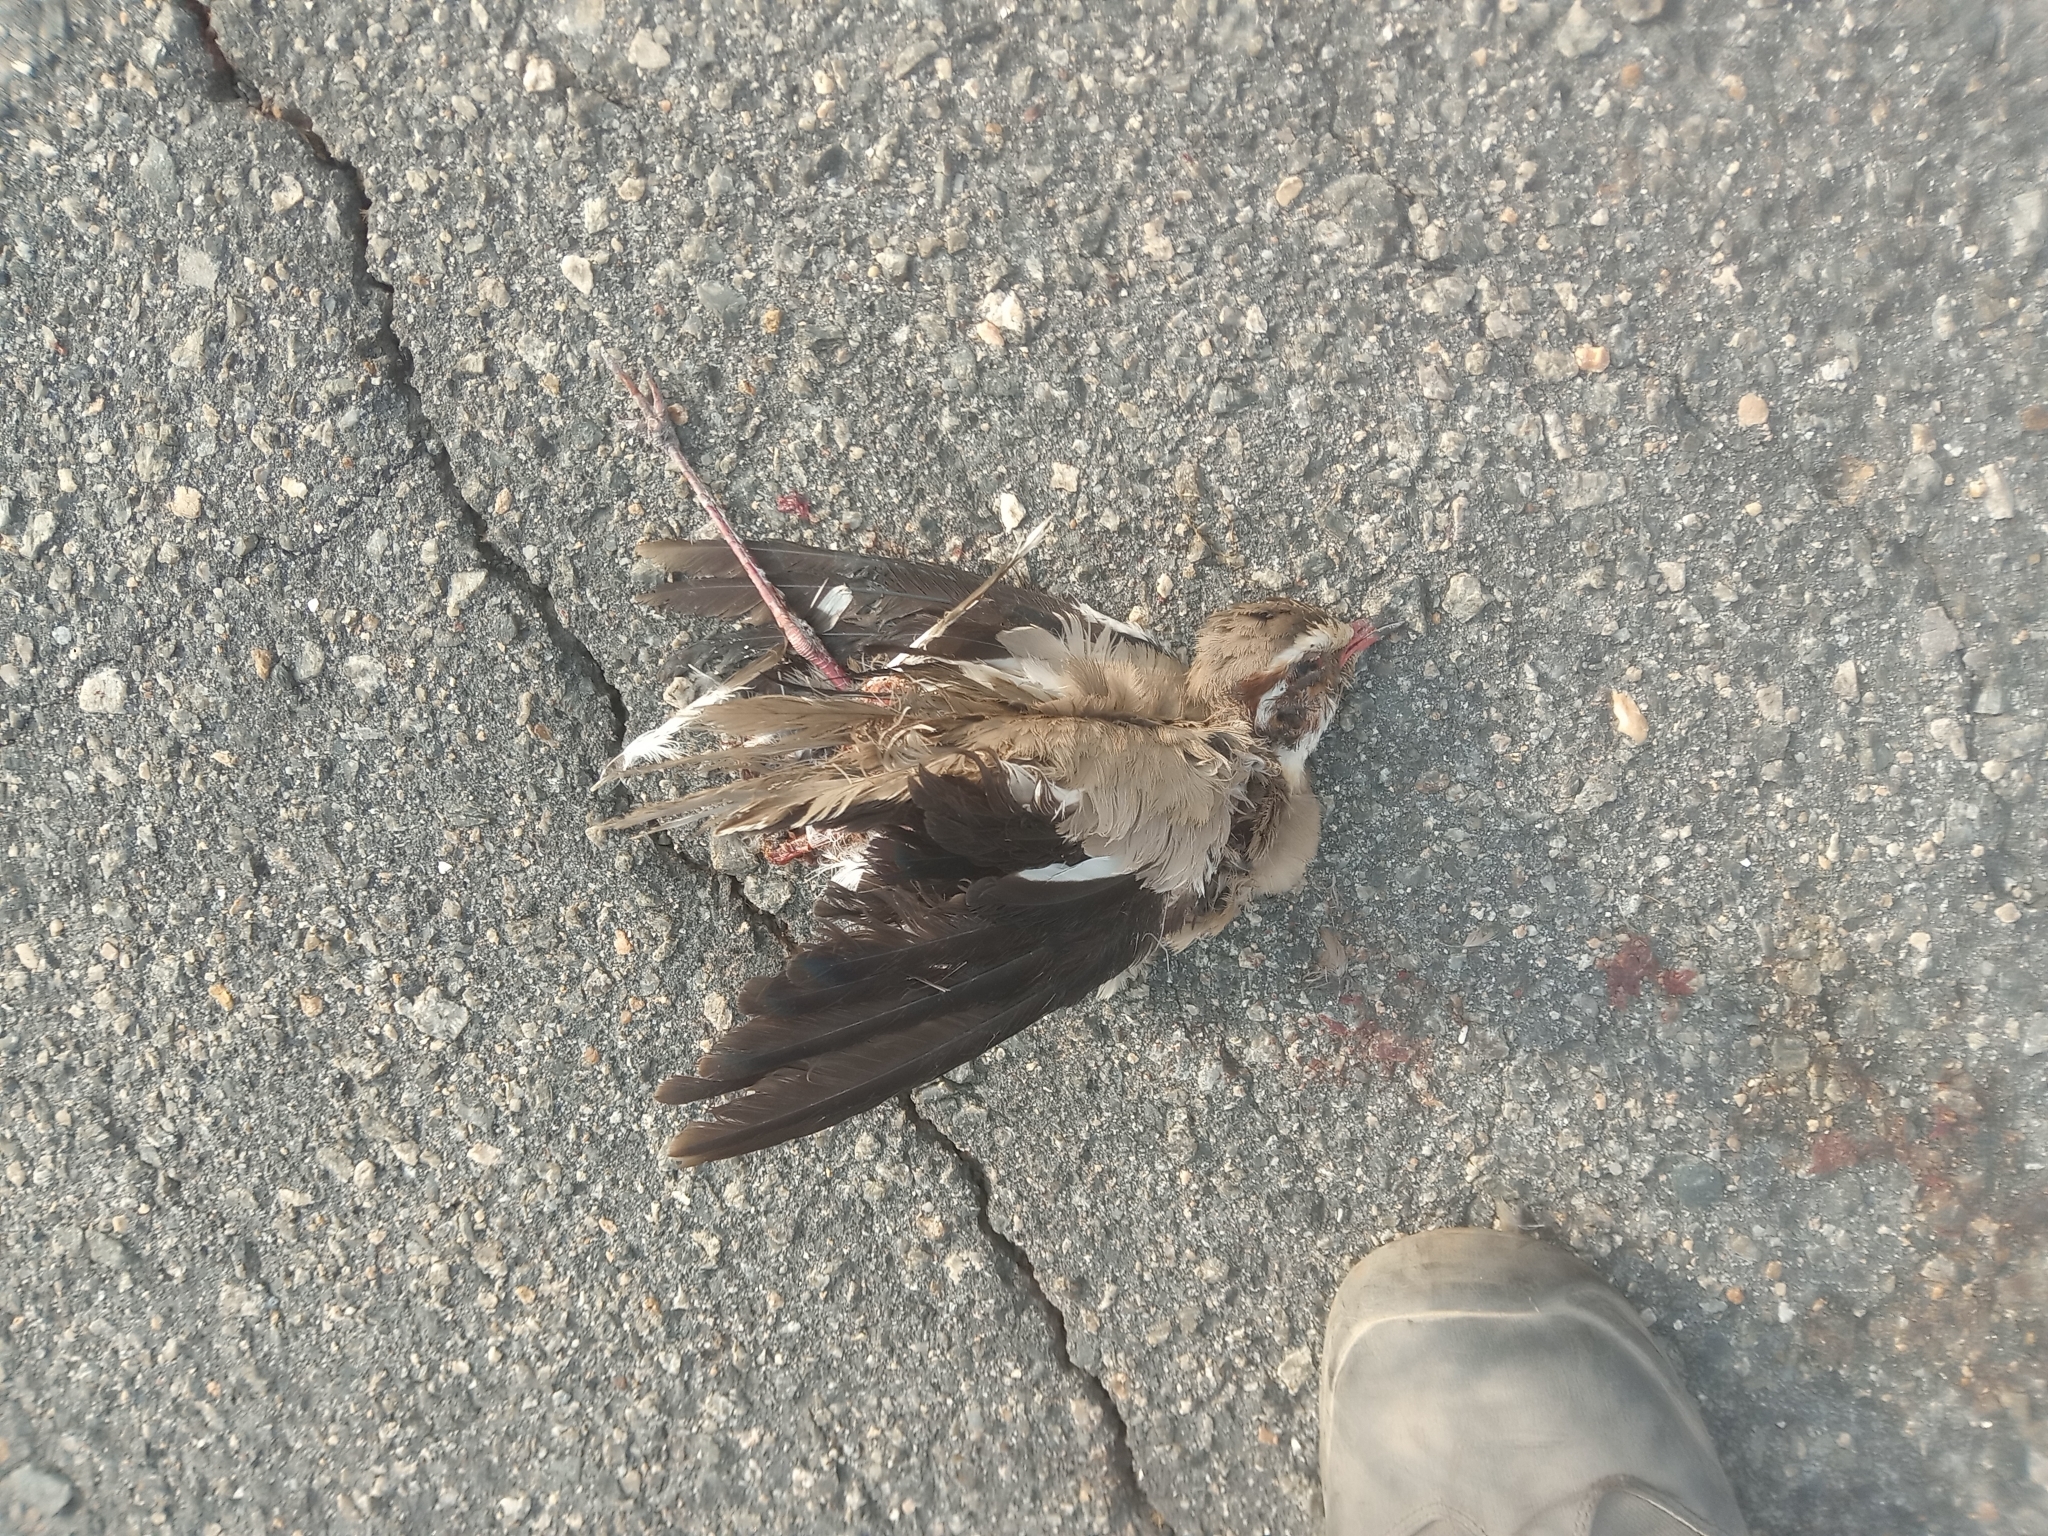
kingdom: Animalia
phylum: Chordata
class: Aves
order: Charadriiformes
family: Glareolidae
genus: Rhinoptilus
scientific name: Rhinoptilus chalcopterus
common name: Bronze-winged courser
